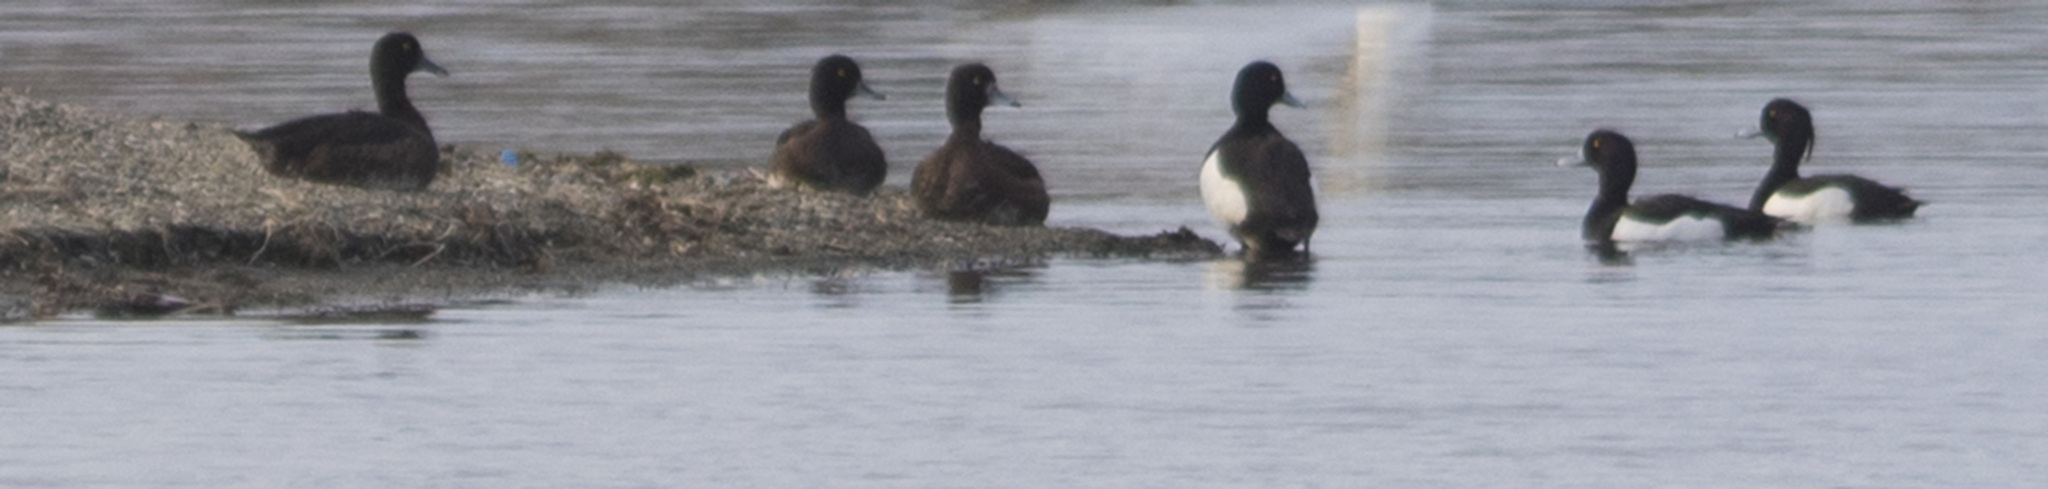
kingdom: Animalia
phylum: Chordata
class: Aves
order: Anseriformes
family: Anatidae
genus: Aythya
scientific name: Aythya fuligula
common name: Tufted duck
